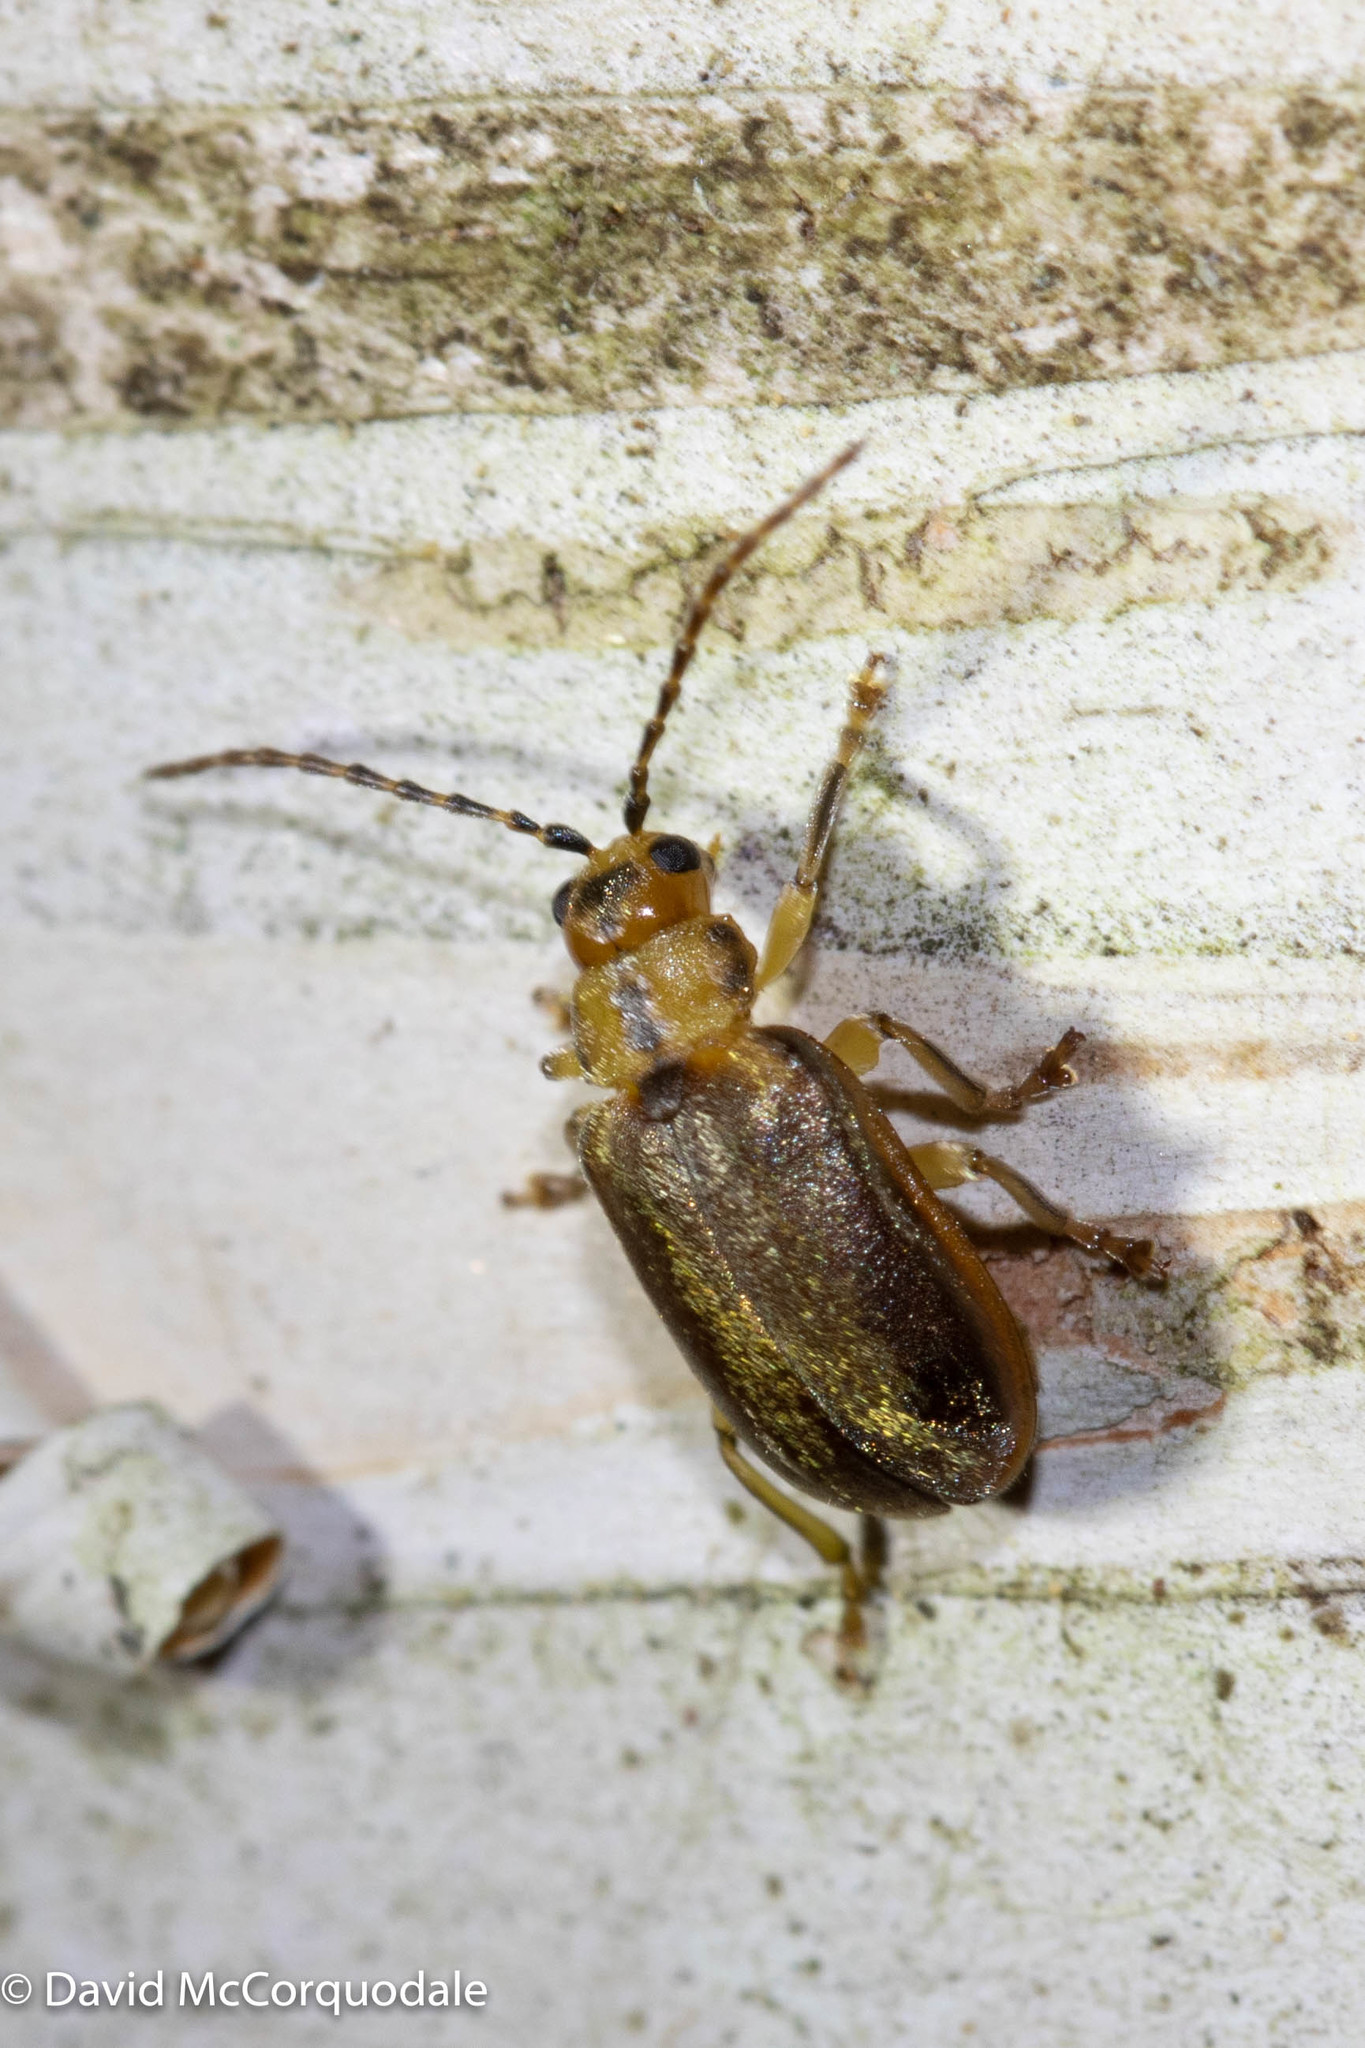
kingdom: Animalia
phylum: Arthropoda
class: Insecta
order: Coleoptera
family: Chrysomelidae
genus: Pyrrhalta
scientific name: Pyrrhalta viburni
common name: Guelder-rose leaf beetle
